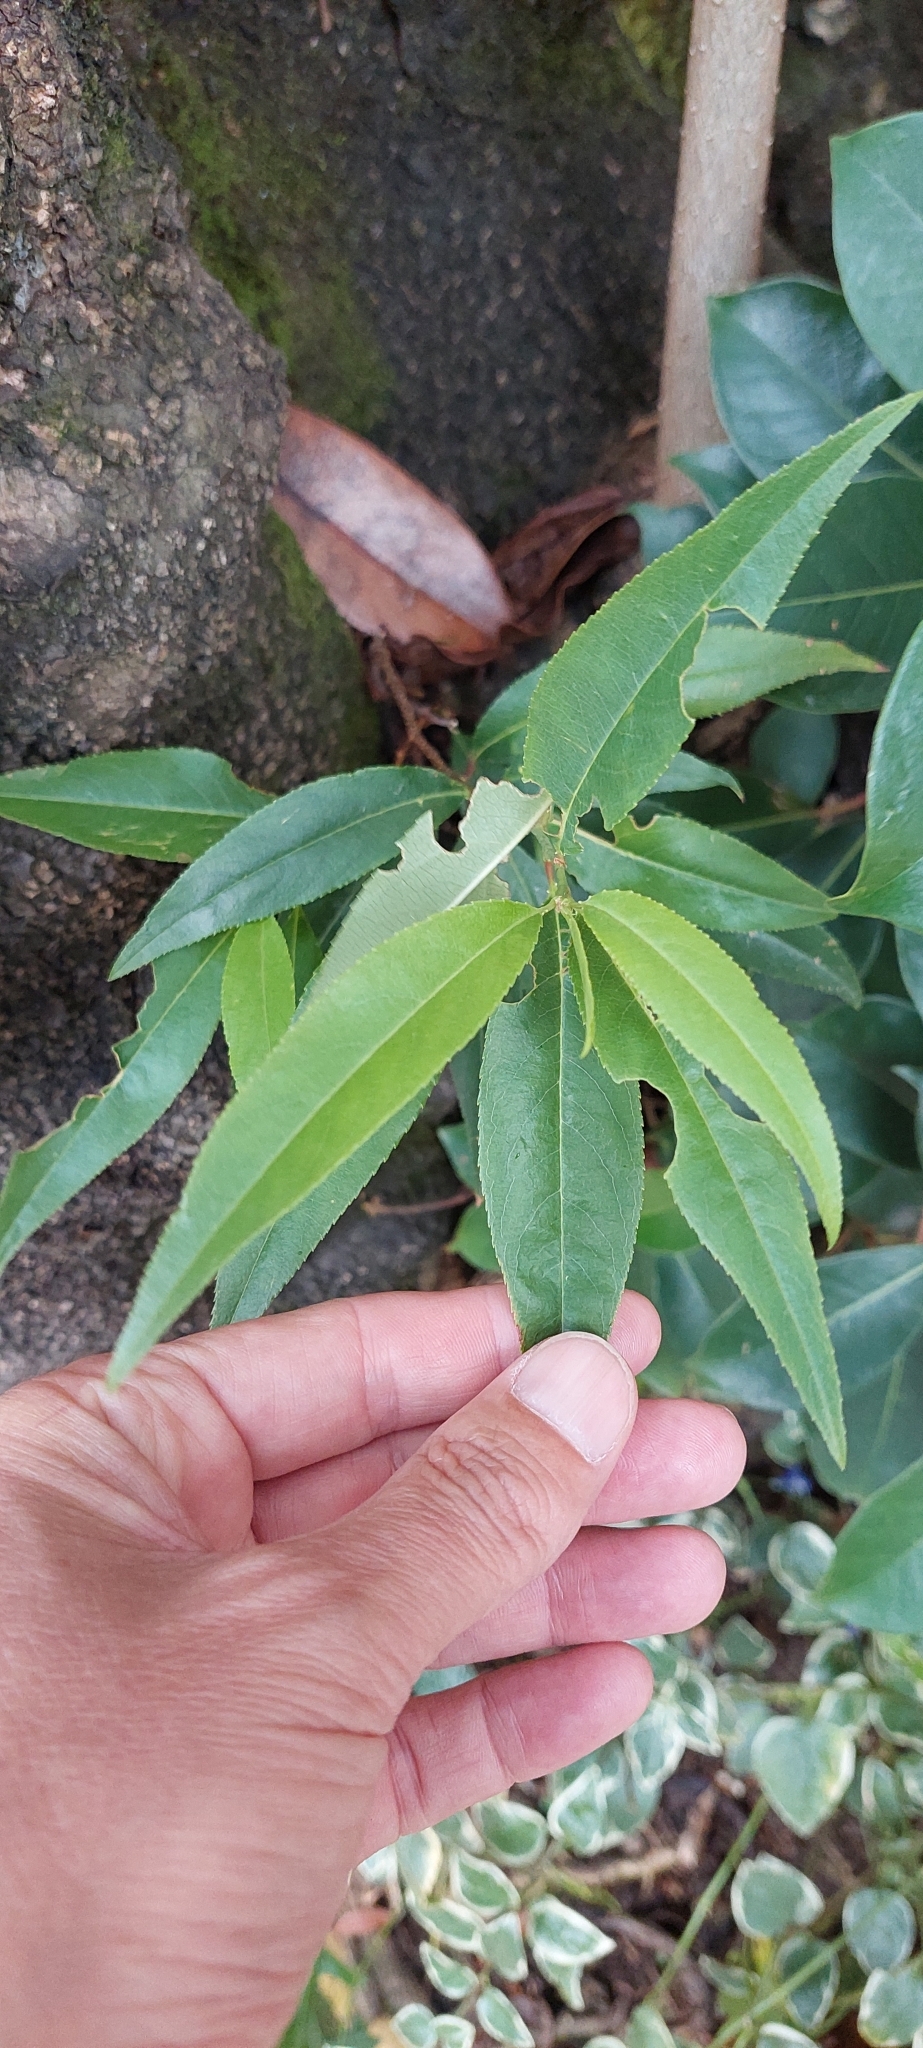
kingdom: Plantae
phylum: Tracheophyta
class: Magnoliopsida
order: Rosales
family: Rosaceae
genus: Prunus
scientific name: Prunus serotina
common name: Black cherry
